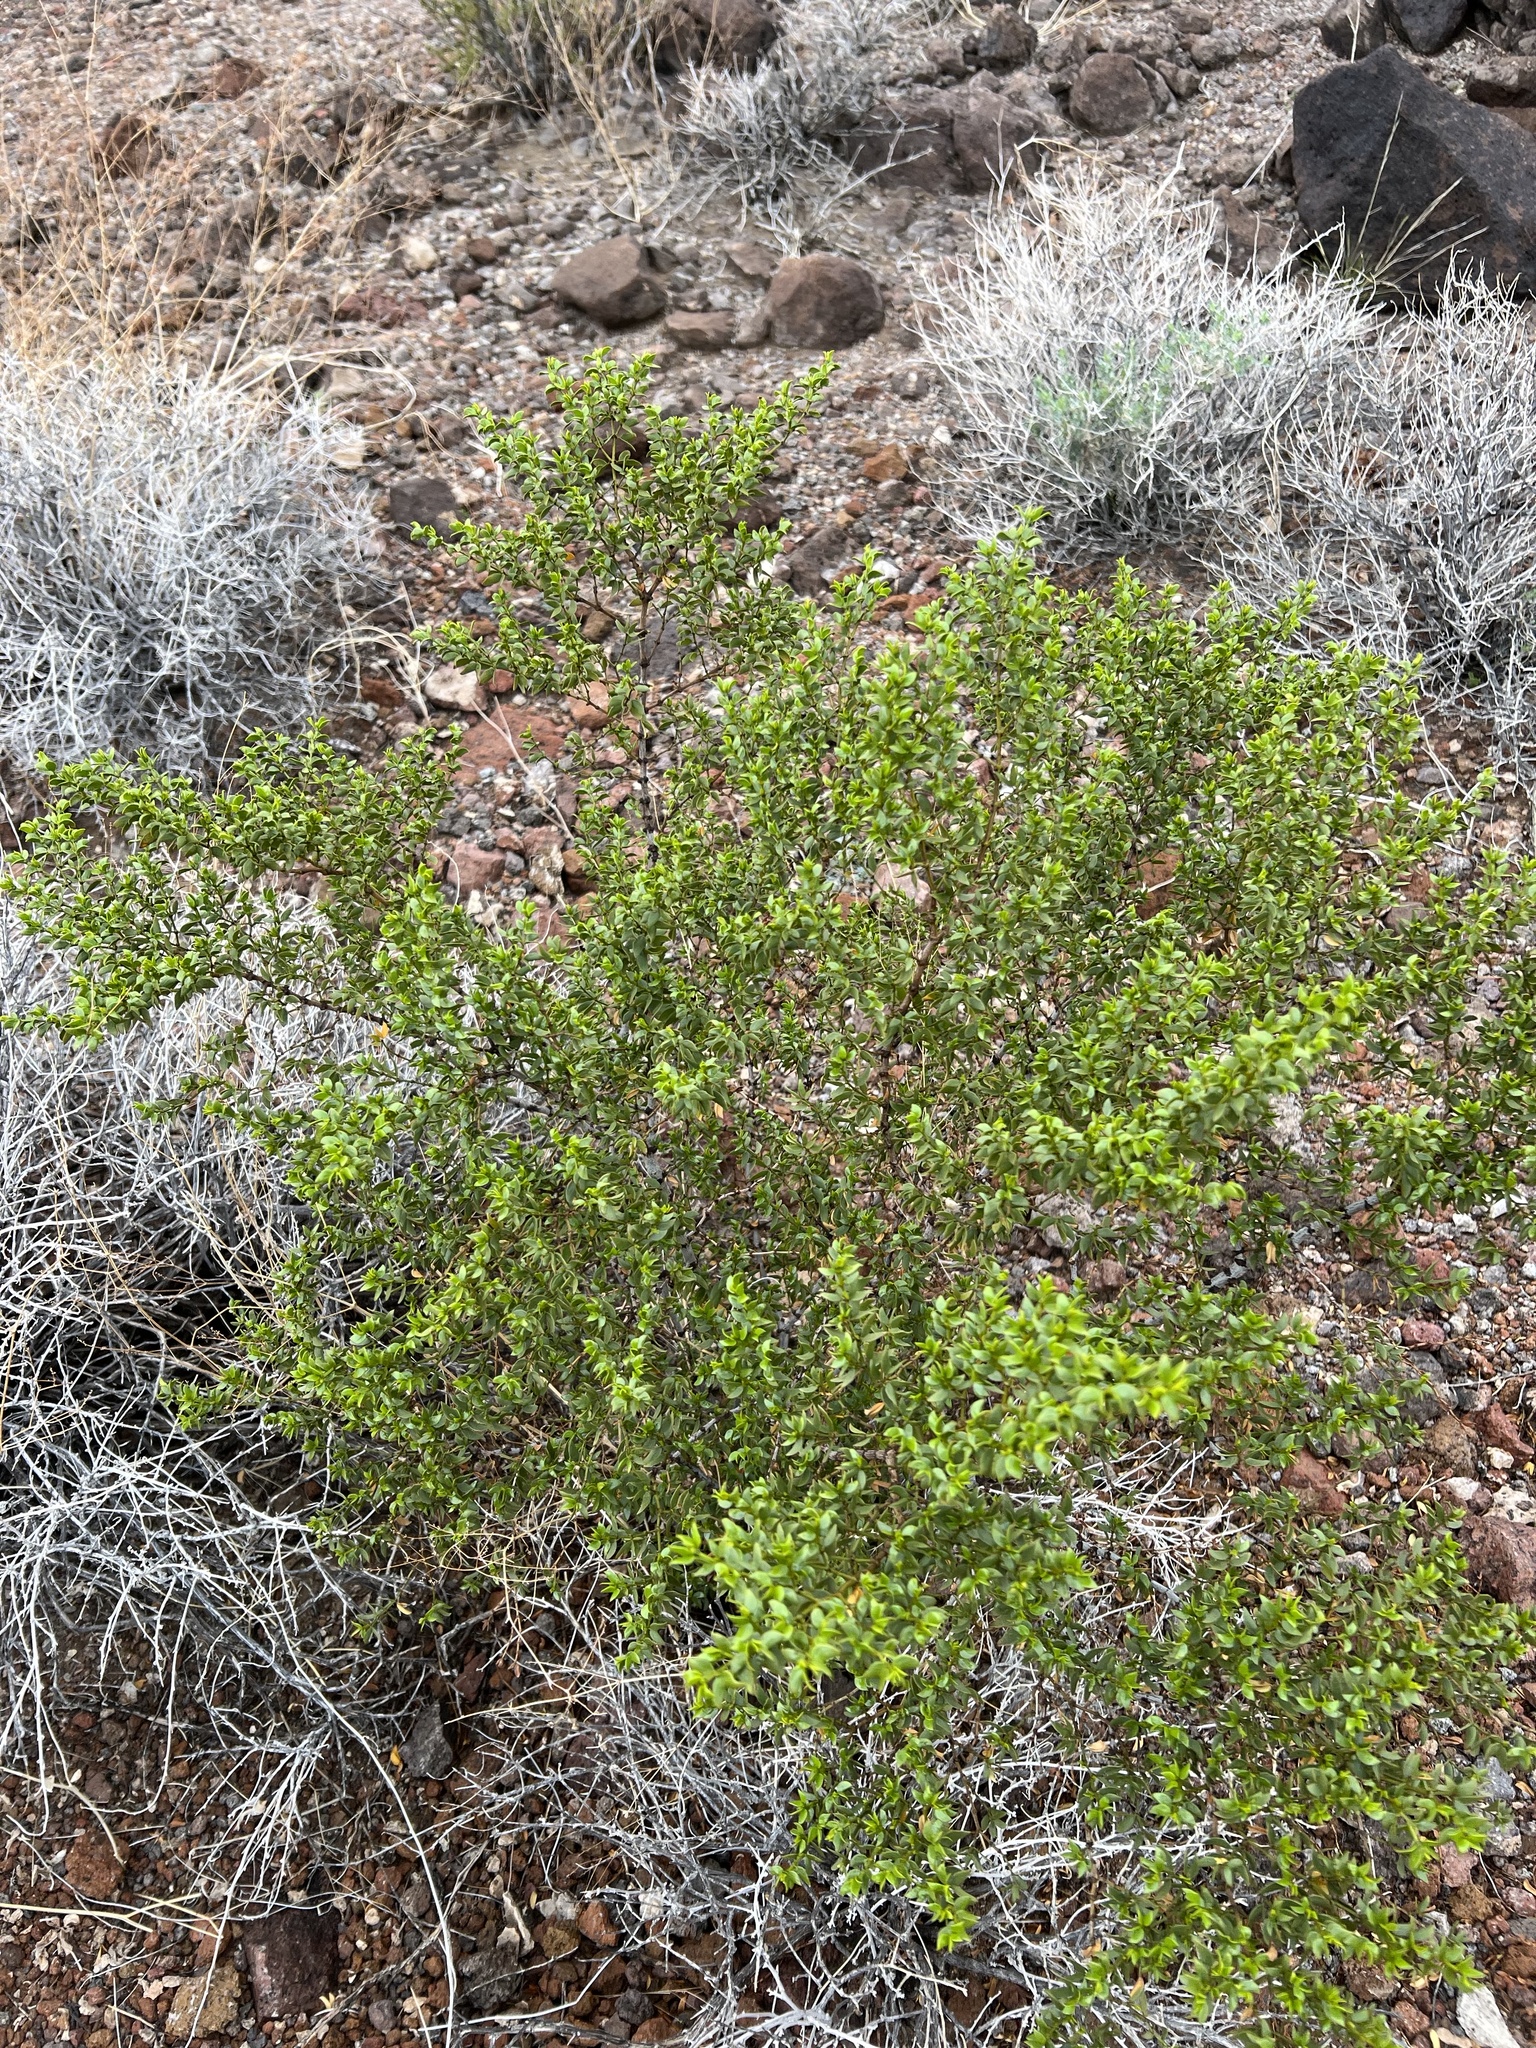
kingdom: Plantae
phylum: Tracheophyta
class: Magnoliopsida
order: Zygophyllales
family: Zygophyllaceae
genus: Larrea
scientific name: Larrea tridentata
